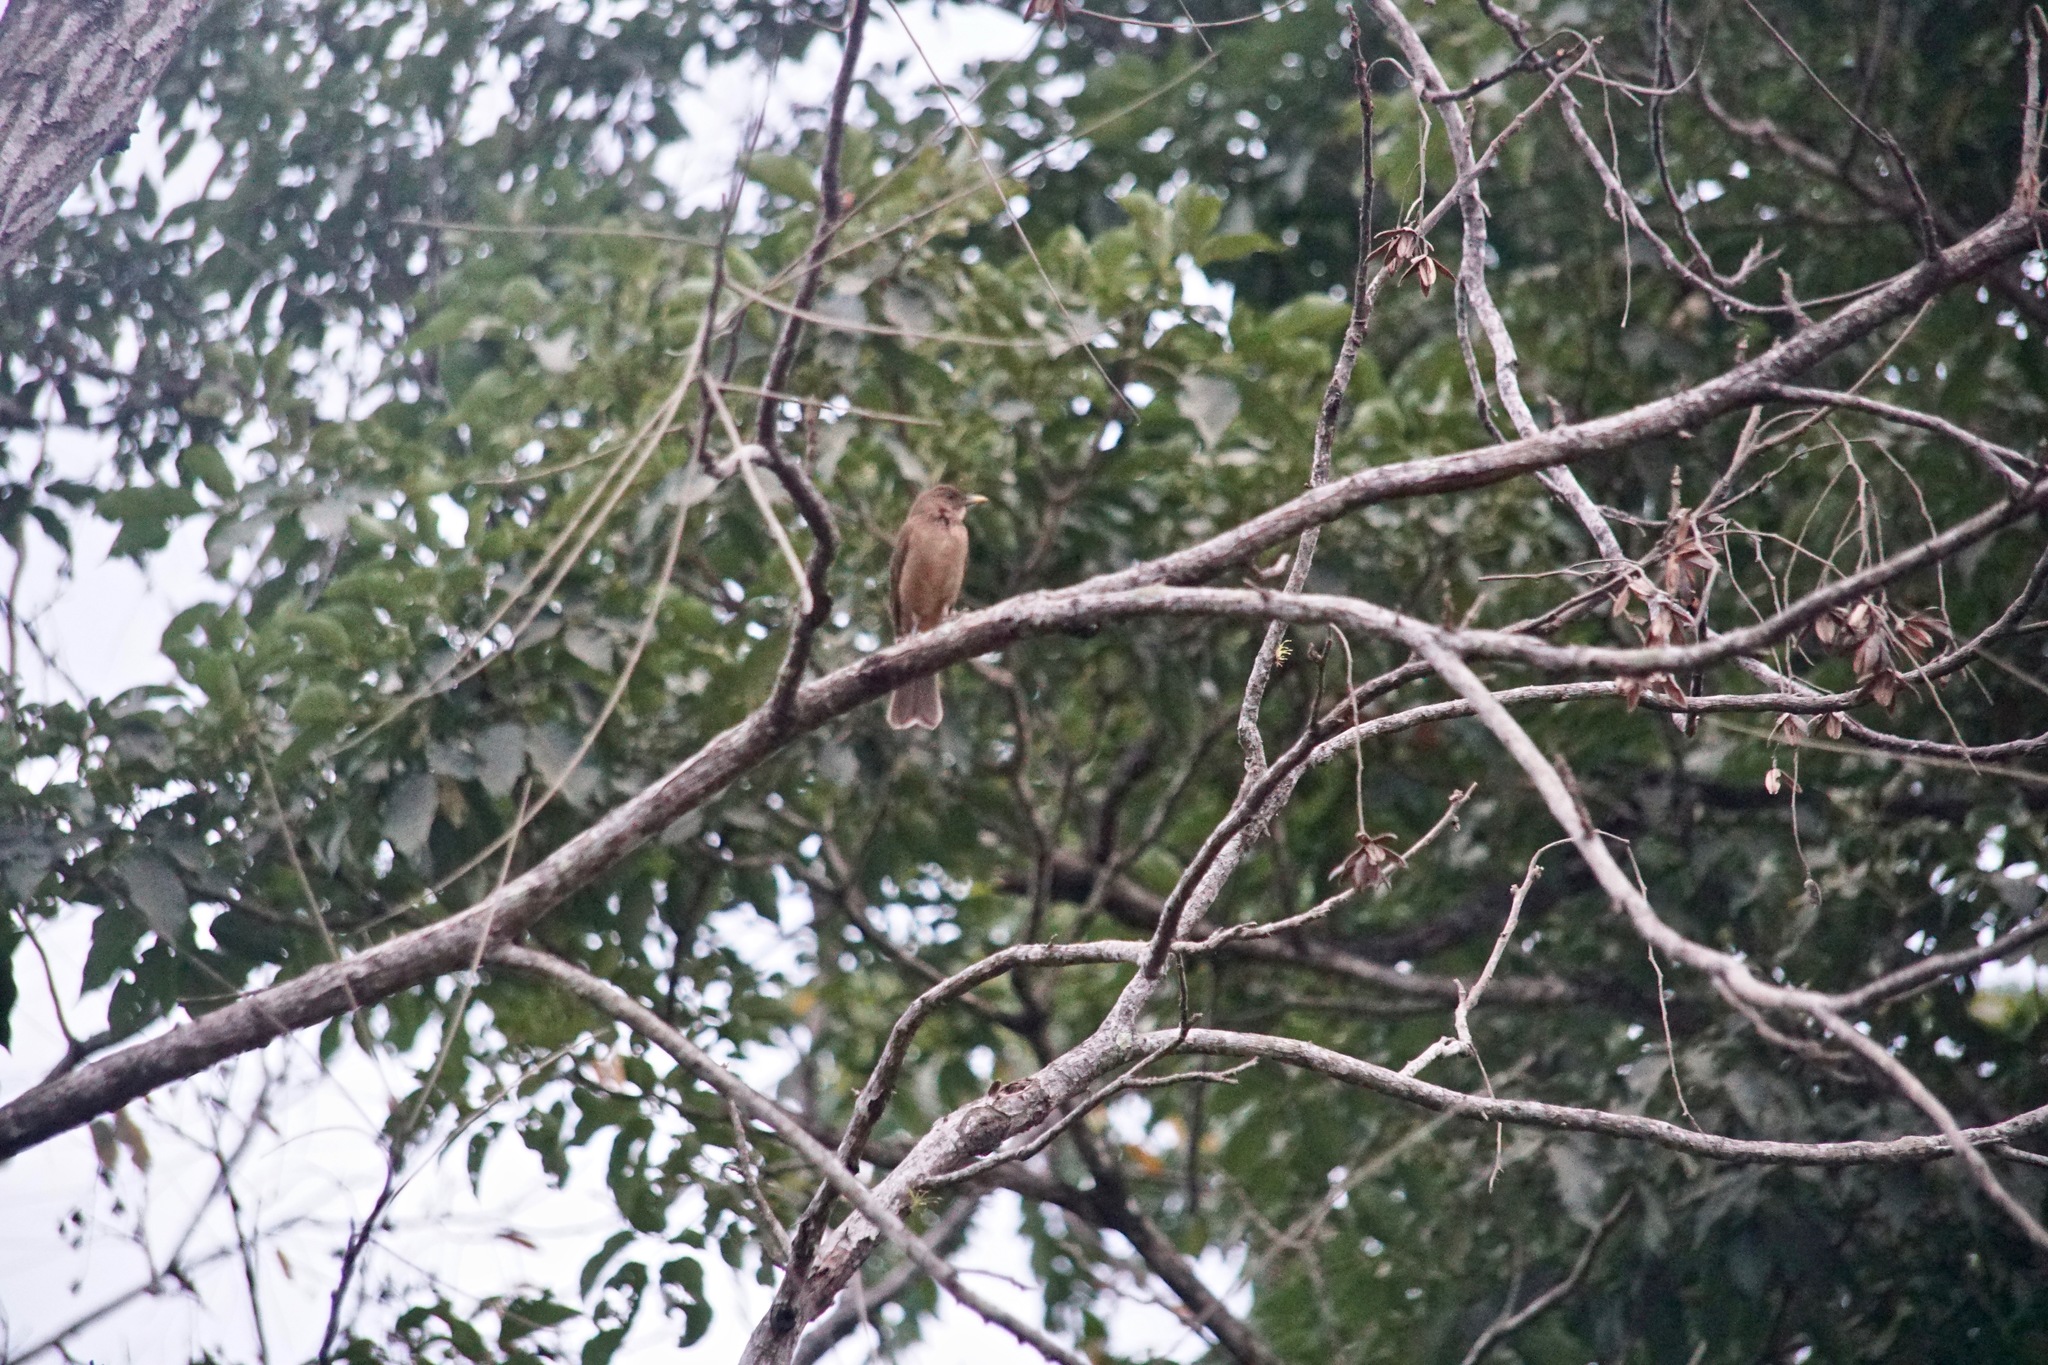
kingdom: Animalia
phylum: Chordata
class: Aves
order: Passeriformes
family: Turdidae
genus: Turdus
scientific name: Turdus grayi
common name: Clay-colored thrush
